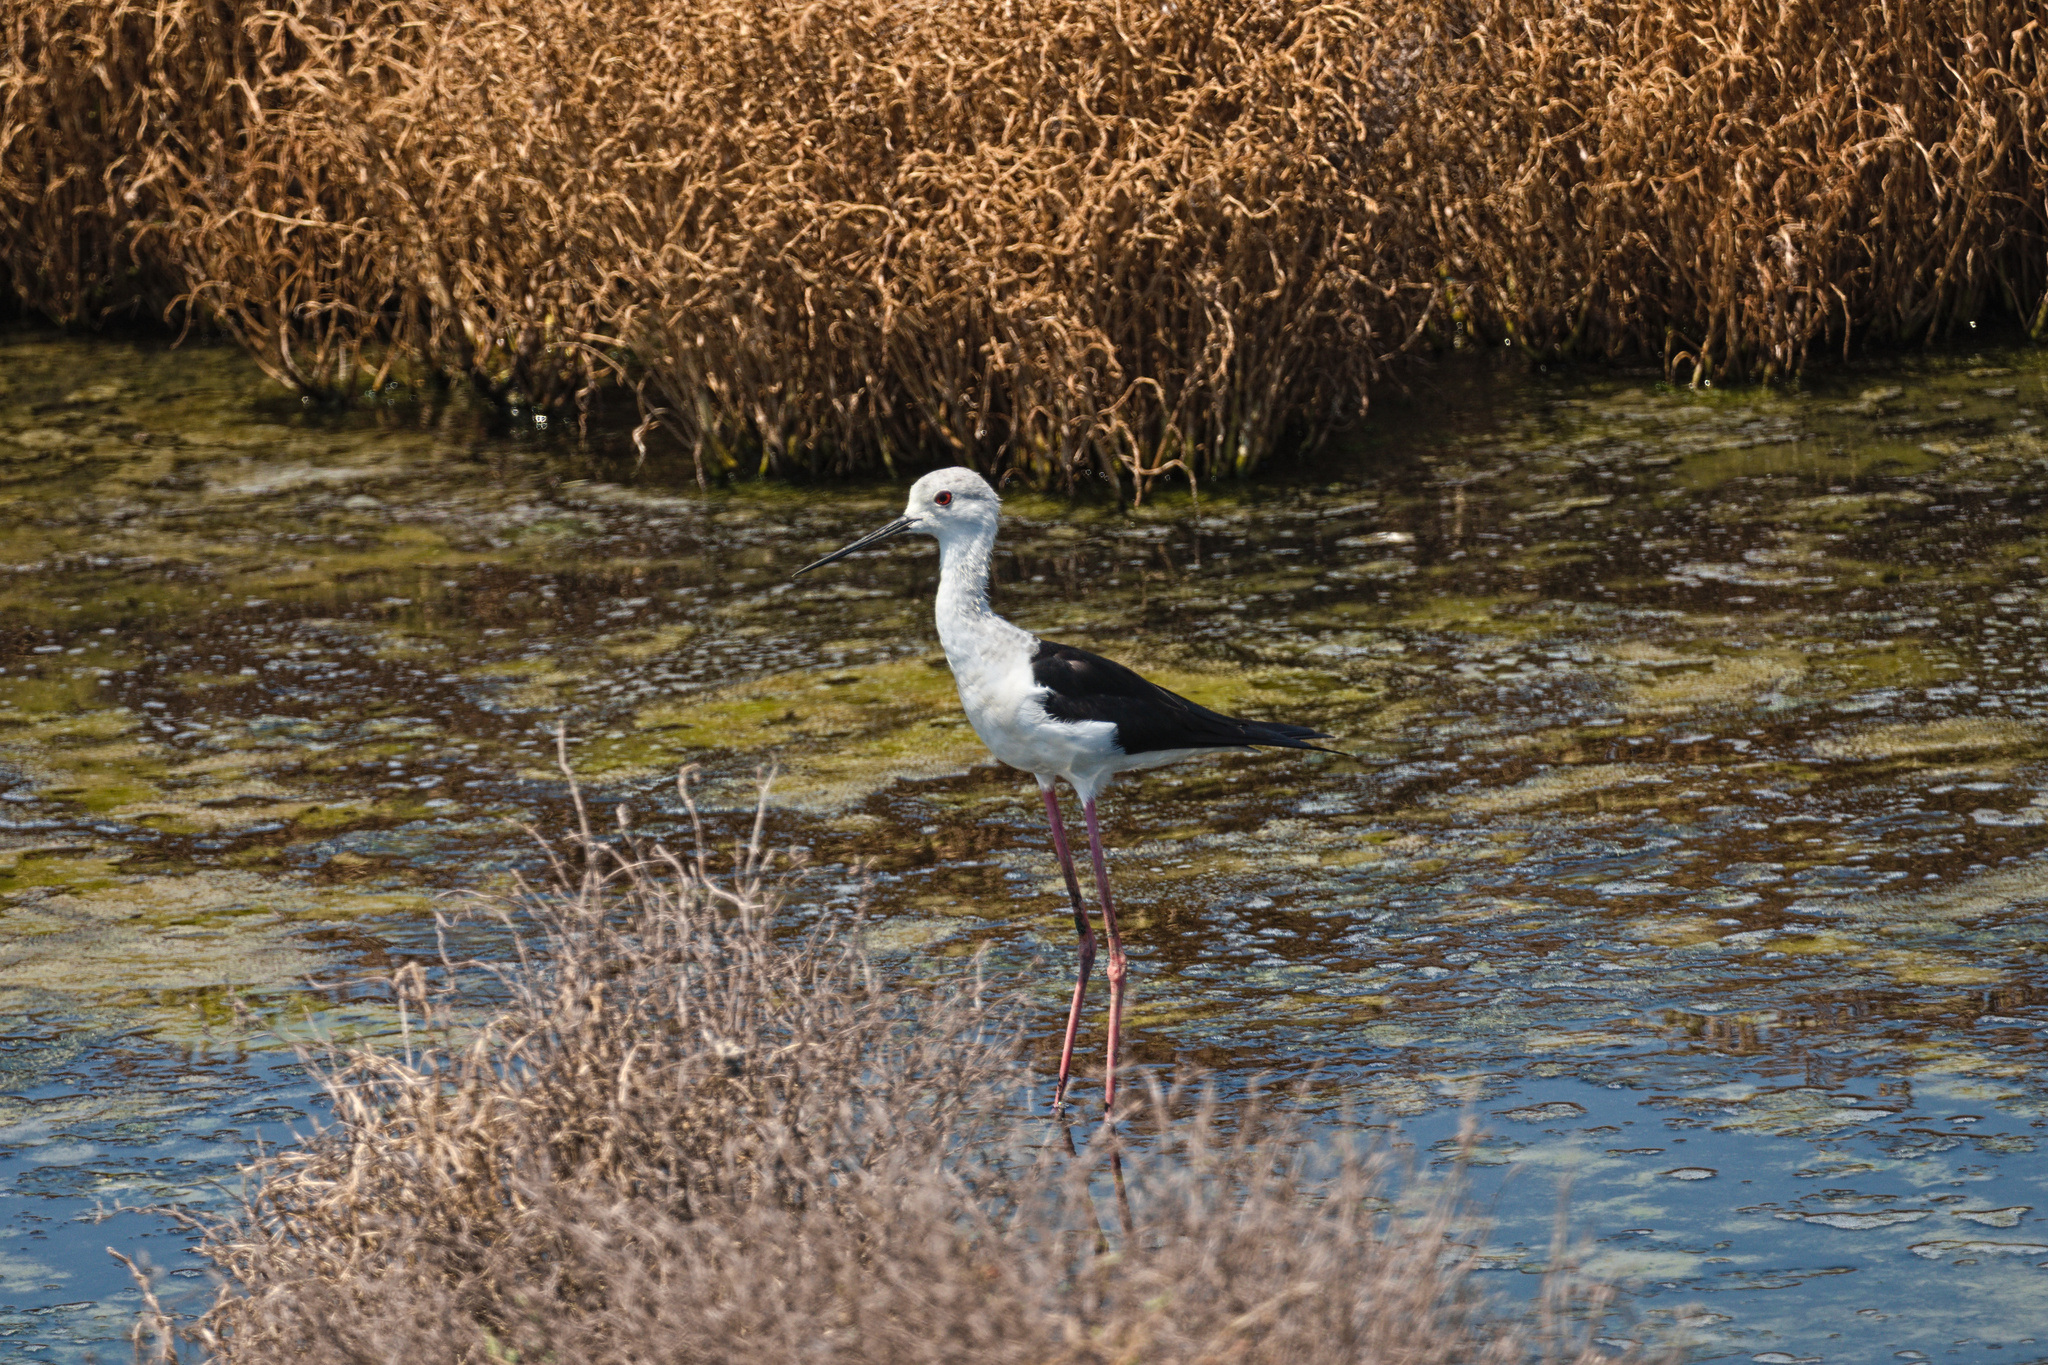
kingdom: Animalia
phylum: Chordata
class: Aves
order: Charadriiformes
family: Recurvirostridae
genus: Himantopus
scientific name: Himantopus himantopus
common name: Black-winged stilt
